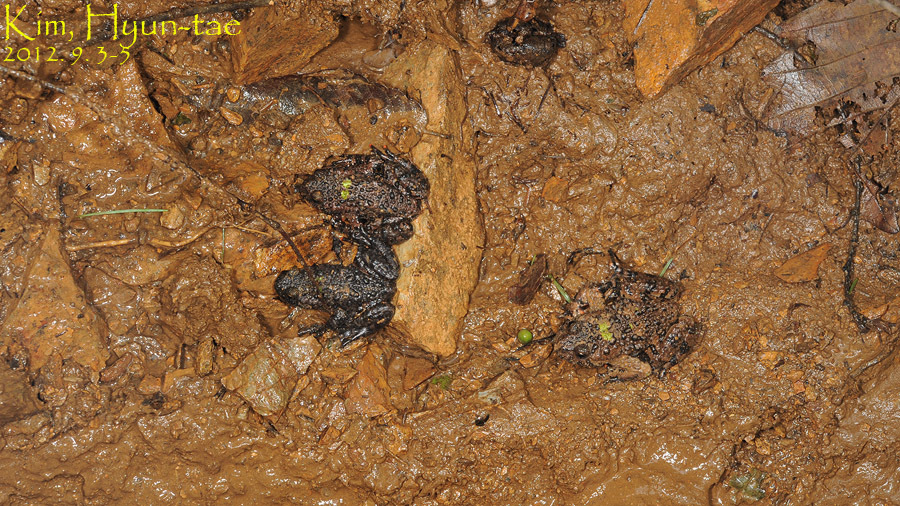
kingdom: Animalia
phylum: Chordata
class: Amphibia
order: Anura
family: Bombinatoridae
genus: Bombina
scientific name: Bombina orientalis
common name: Oriental firebelly toad
